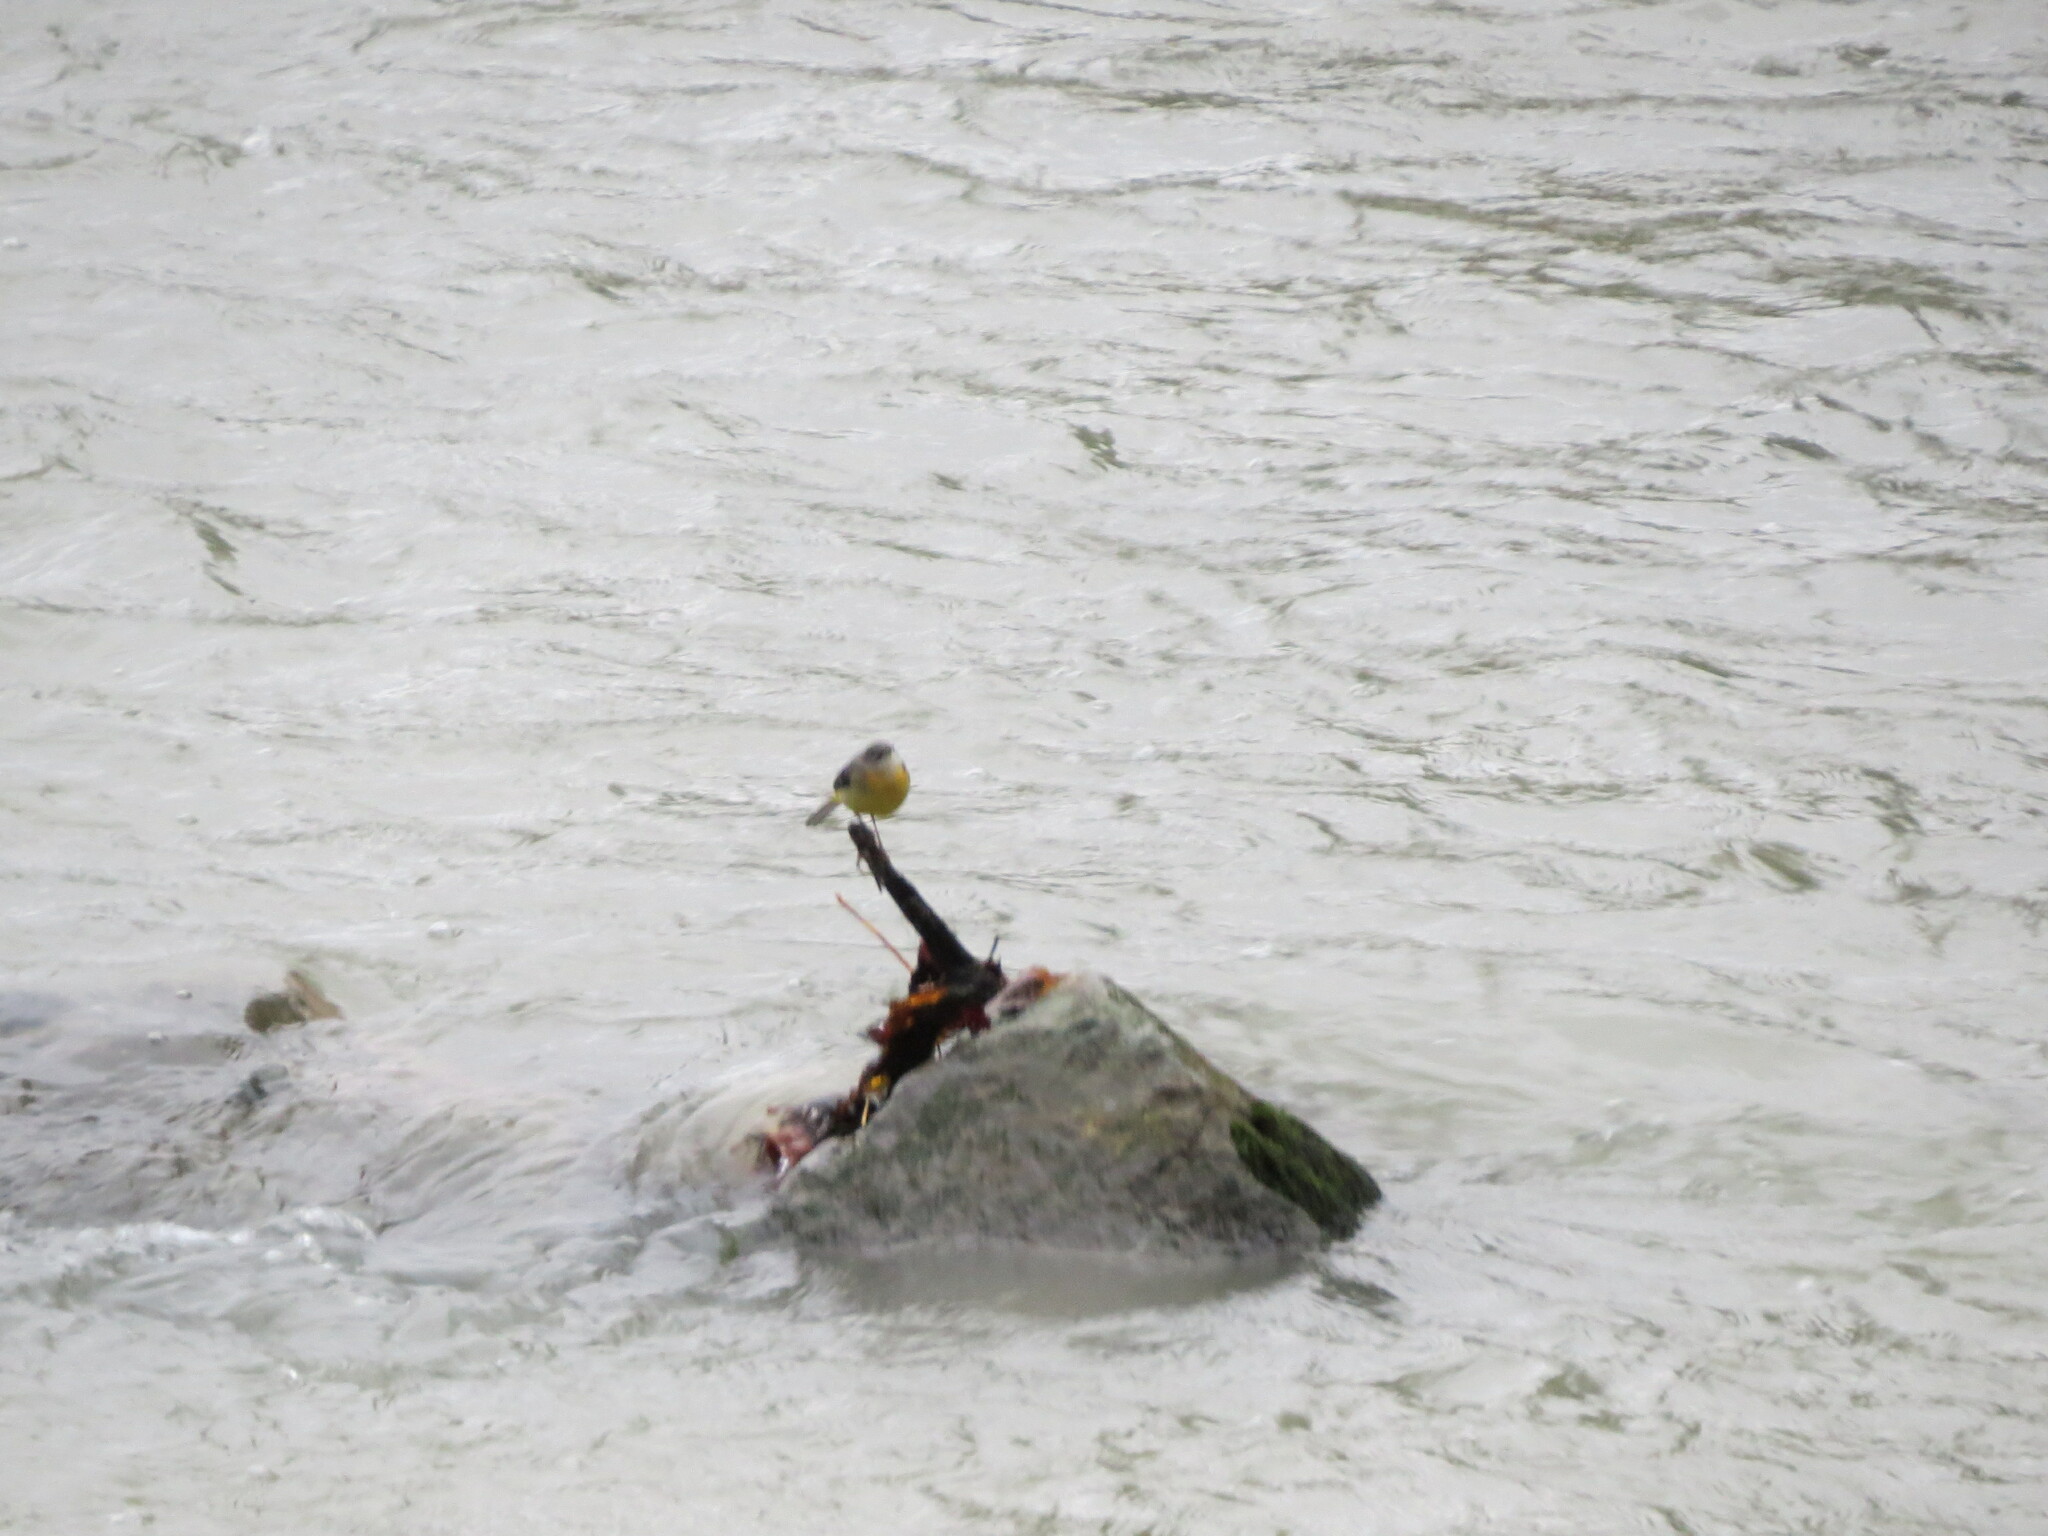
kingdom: Animalia
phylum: Chordata
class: Aves
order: Passeriformes
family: Motacillidae
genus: Motacilla
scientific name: Motacilla cinerea
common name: Grey wagtail
